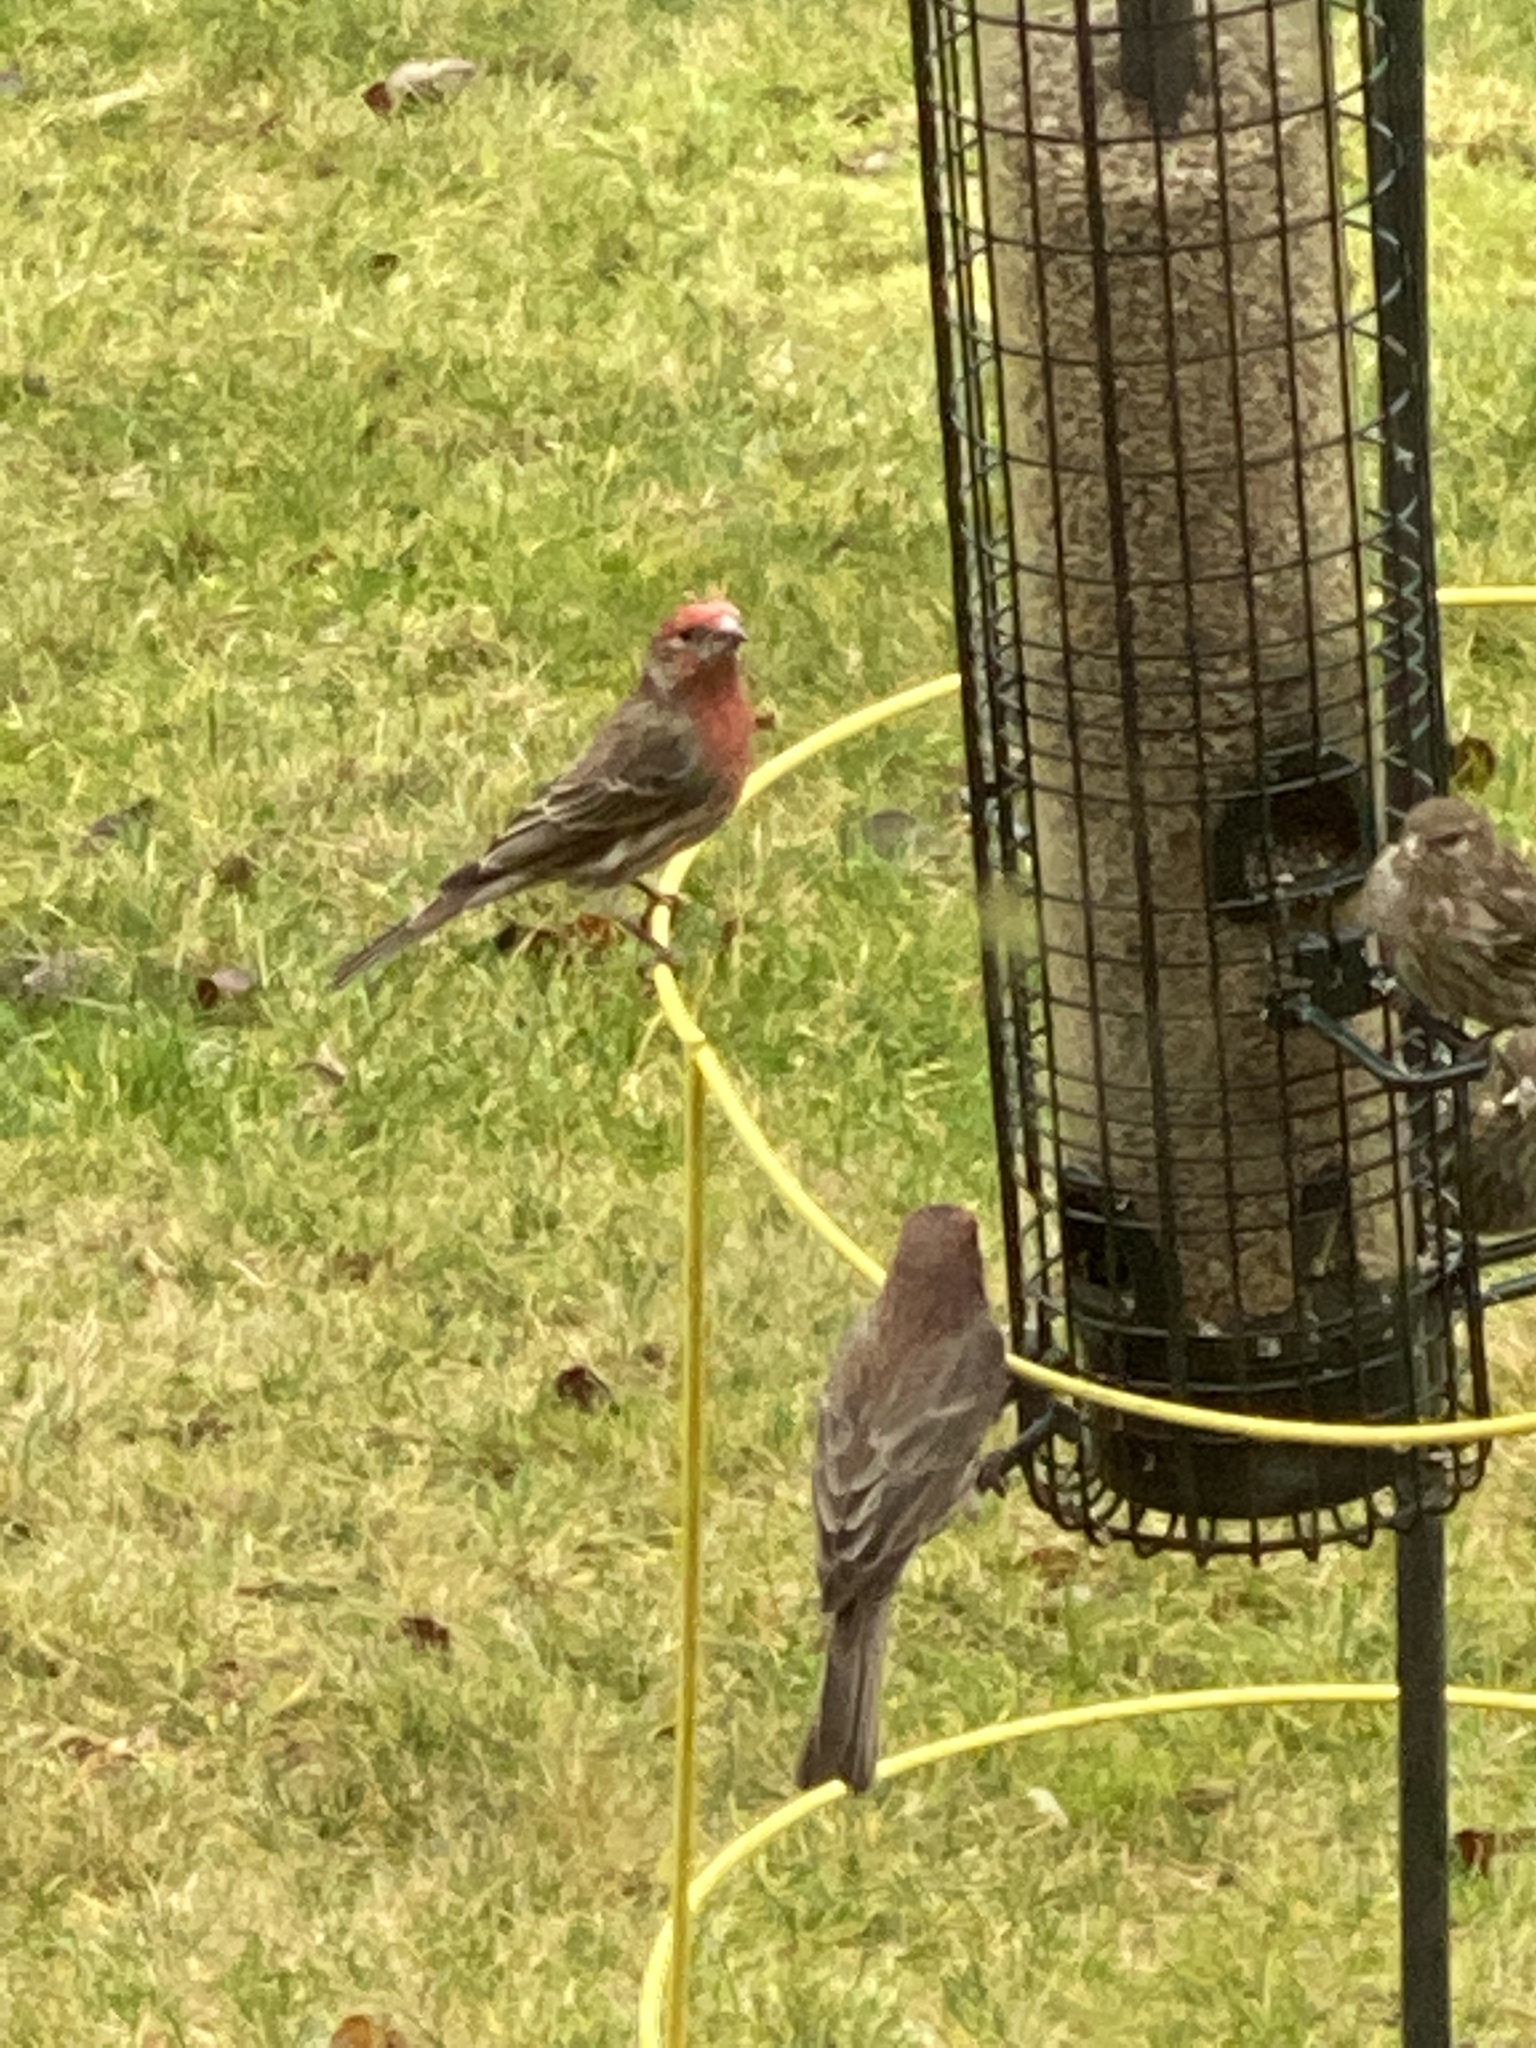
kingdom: Animalia
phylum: Chordata
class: Aves
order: Passeriformes
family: Fringillidae
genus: Haemorhous
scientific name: Haemorhous mexicanus
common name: House finch
